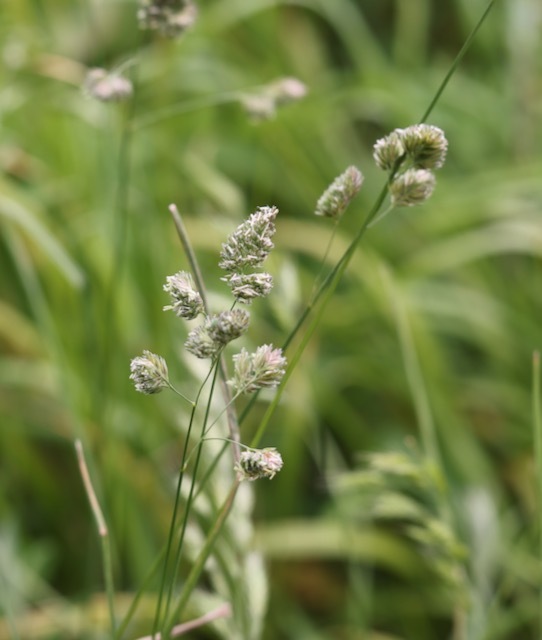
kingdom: Plantae
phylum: Tracheophyta
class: Liliopsida
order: Poales
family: Poaceae
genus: Dactylis
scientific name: Dactylis glomerata
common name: Orchardgrass
